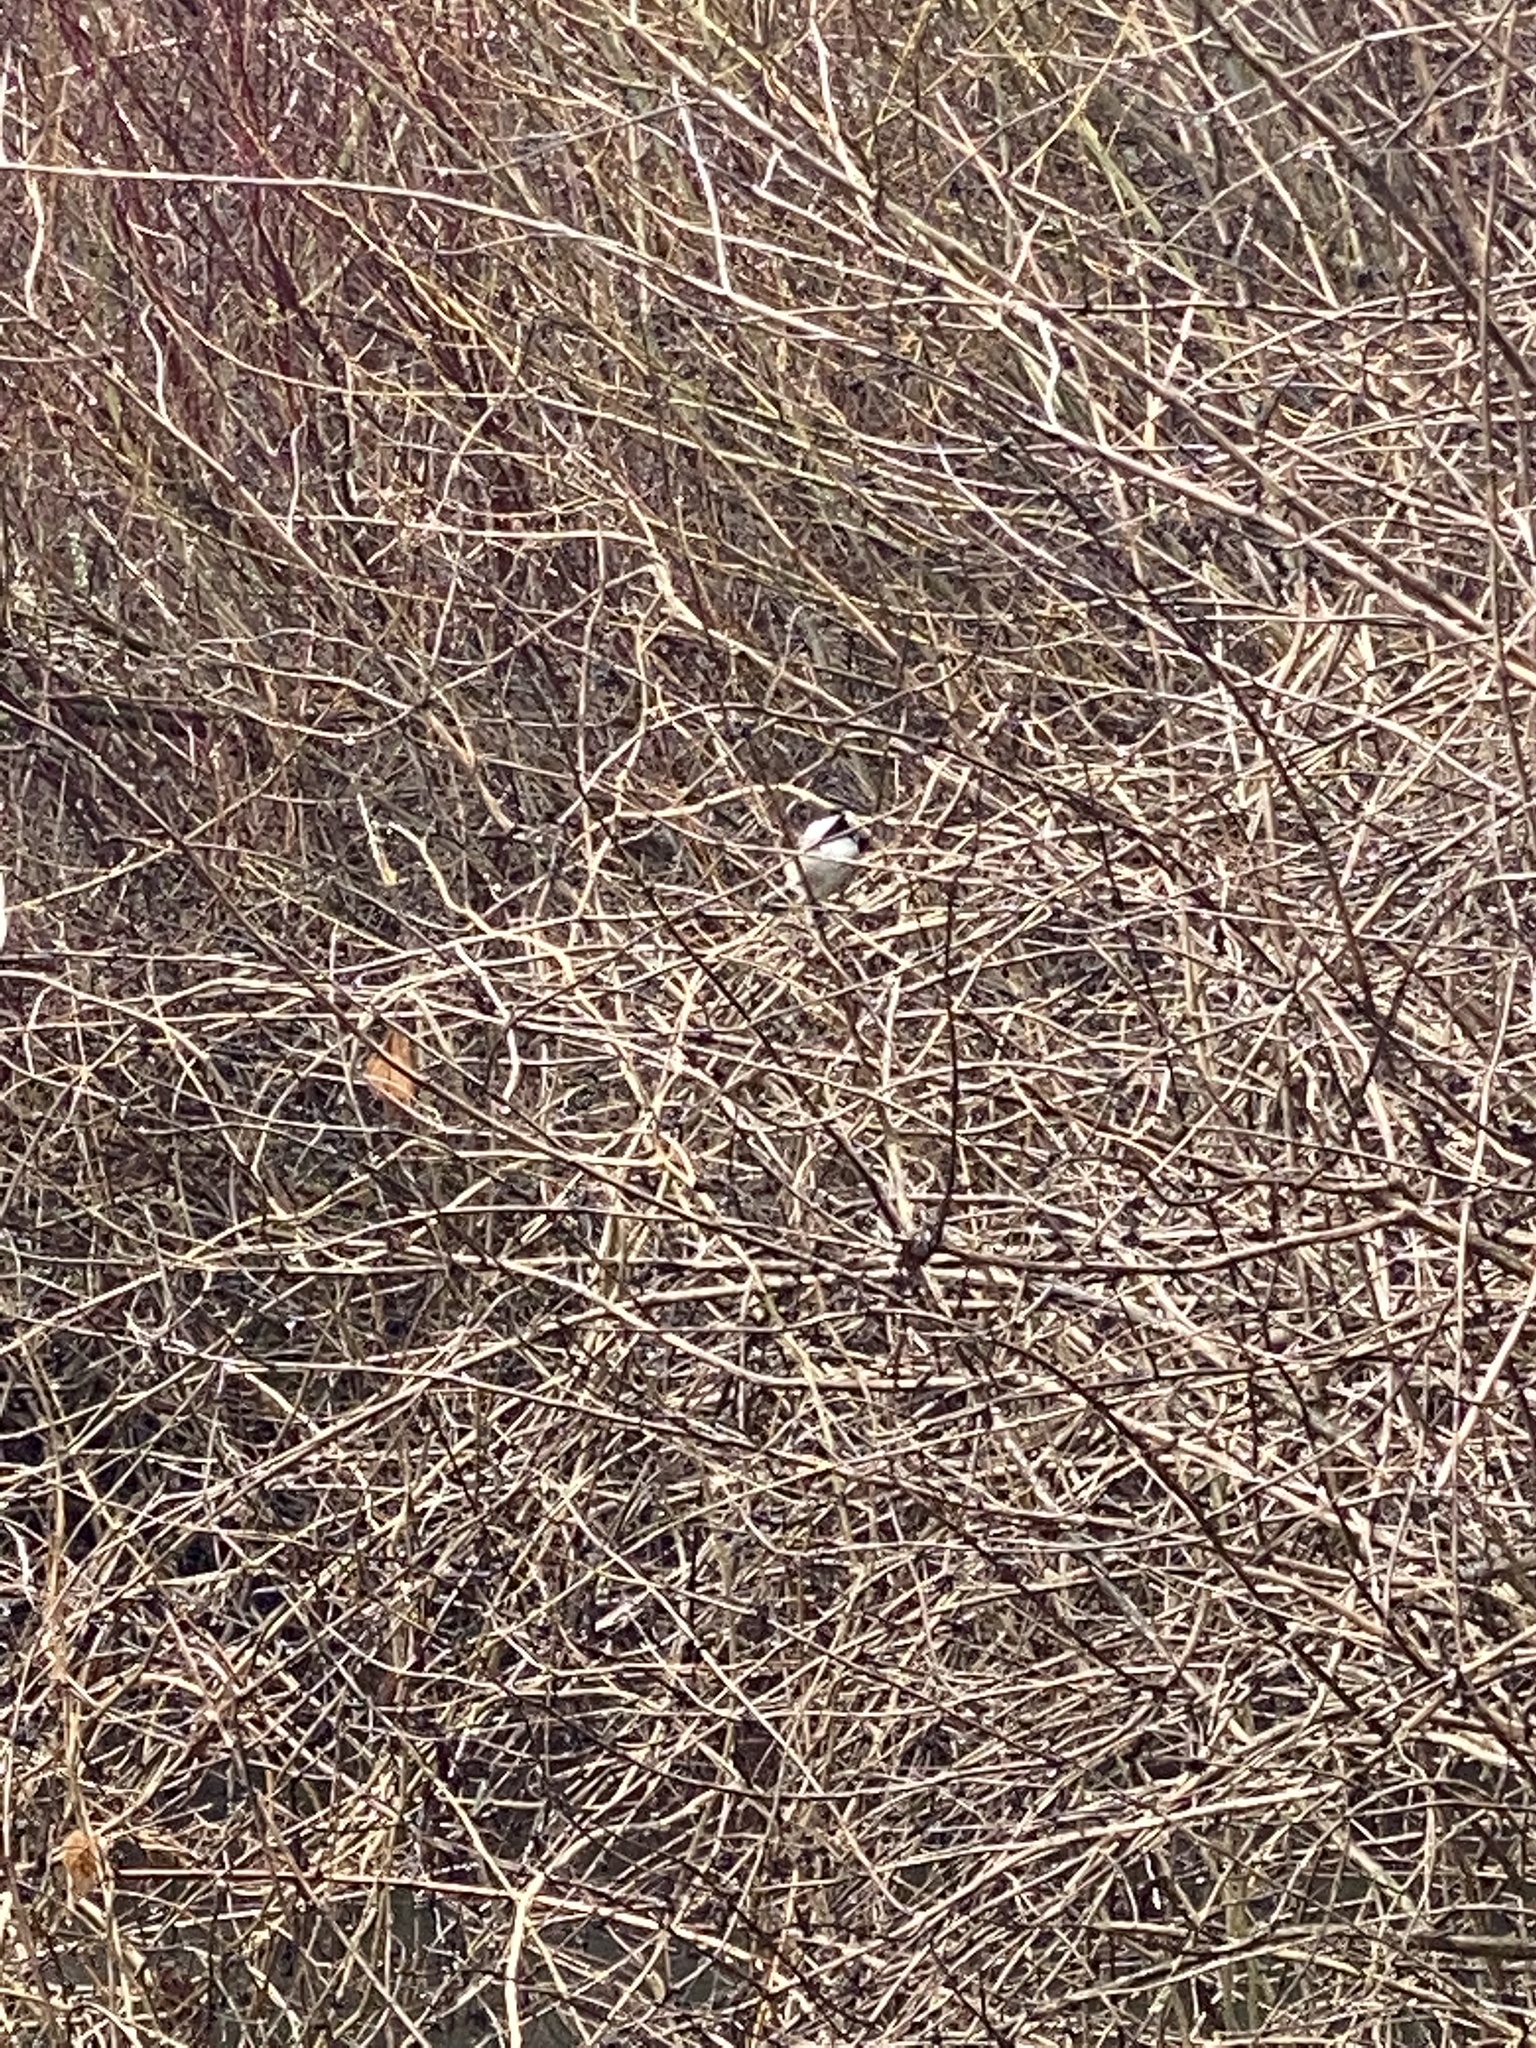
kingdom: Animalia
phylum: Chordata
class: Aves
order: Passeriformes
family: Paridae
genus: Poecile
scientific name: Poecile atricapillus
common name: Black-capped chickadee
